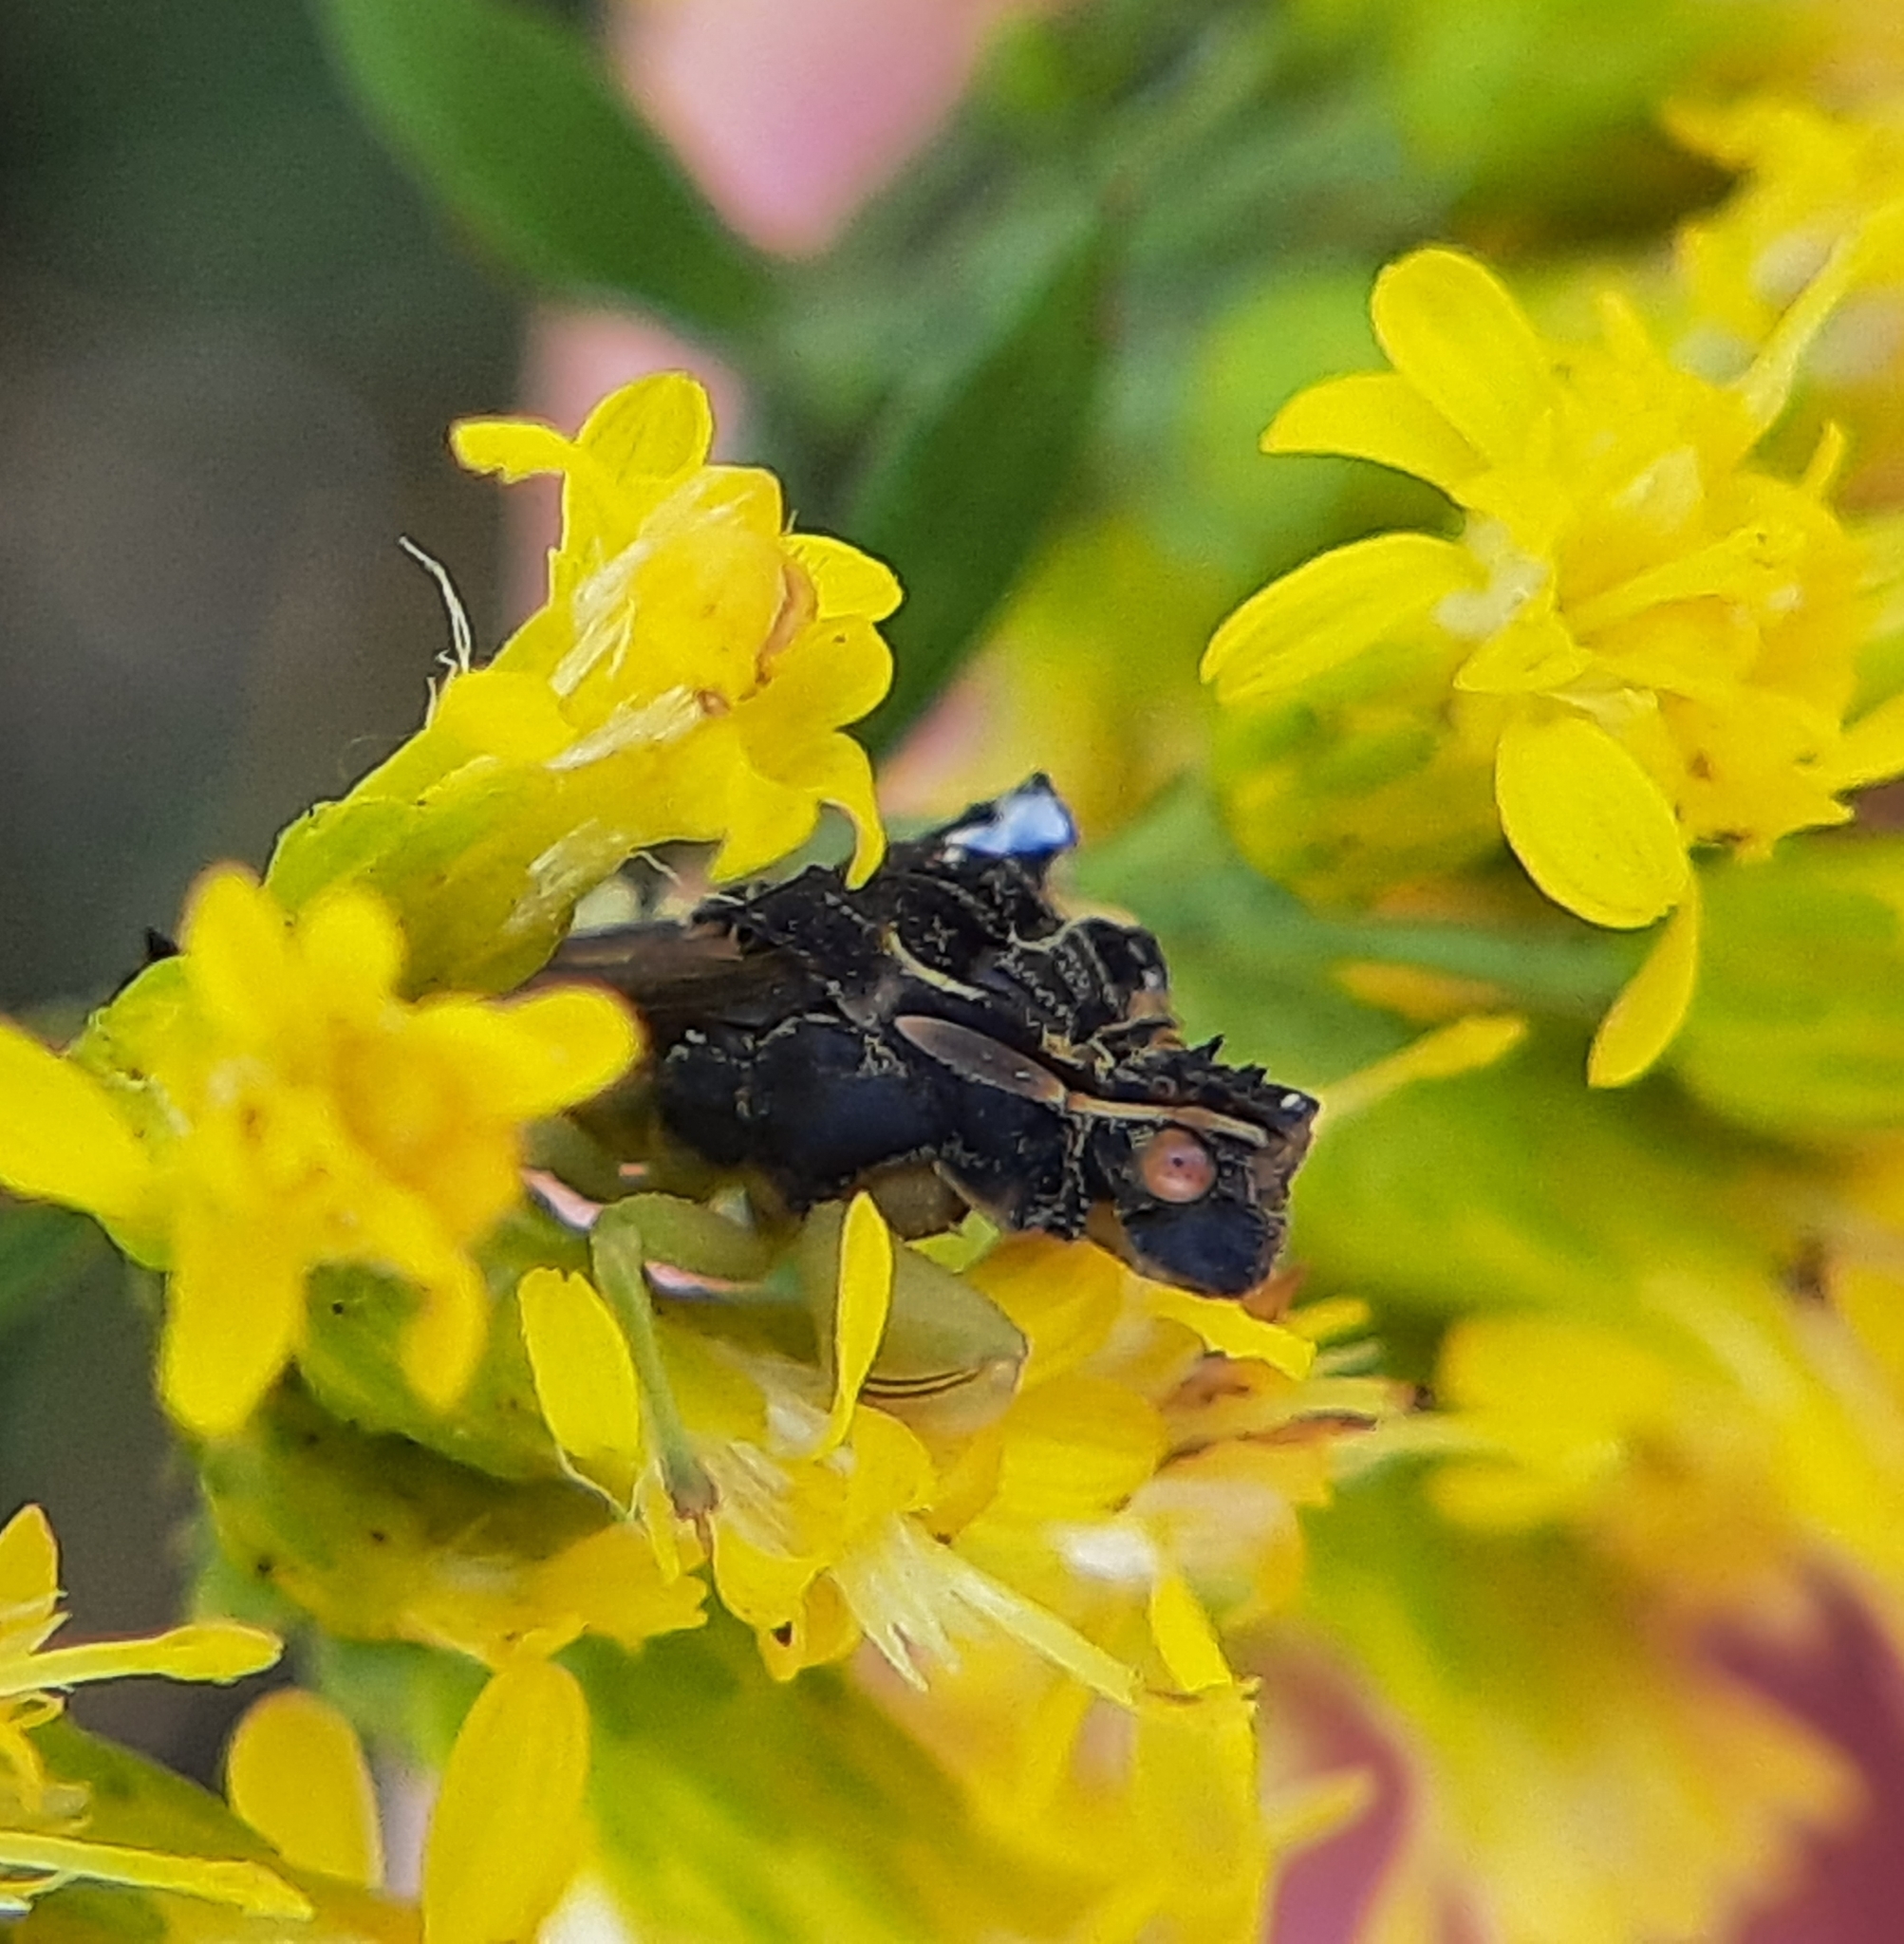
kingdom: Animalia
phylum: Arthropoda
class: Insecta
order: Hemiptera
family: Reduviidae
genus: Phymata
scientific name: Phymata americana
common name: Jagged ambush bug
